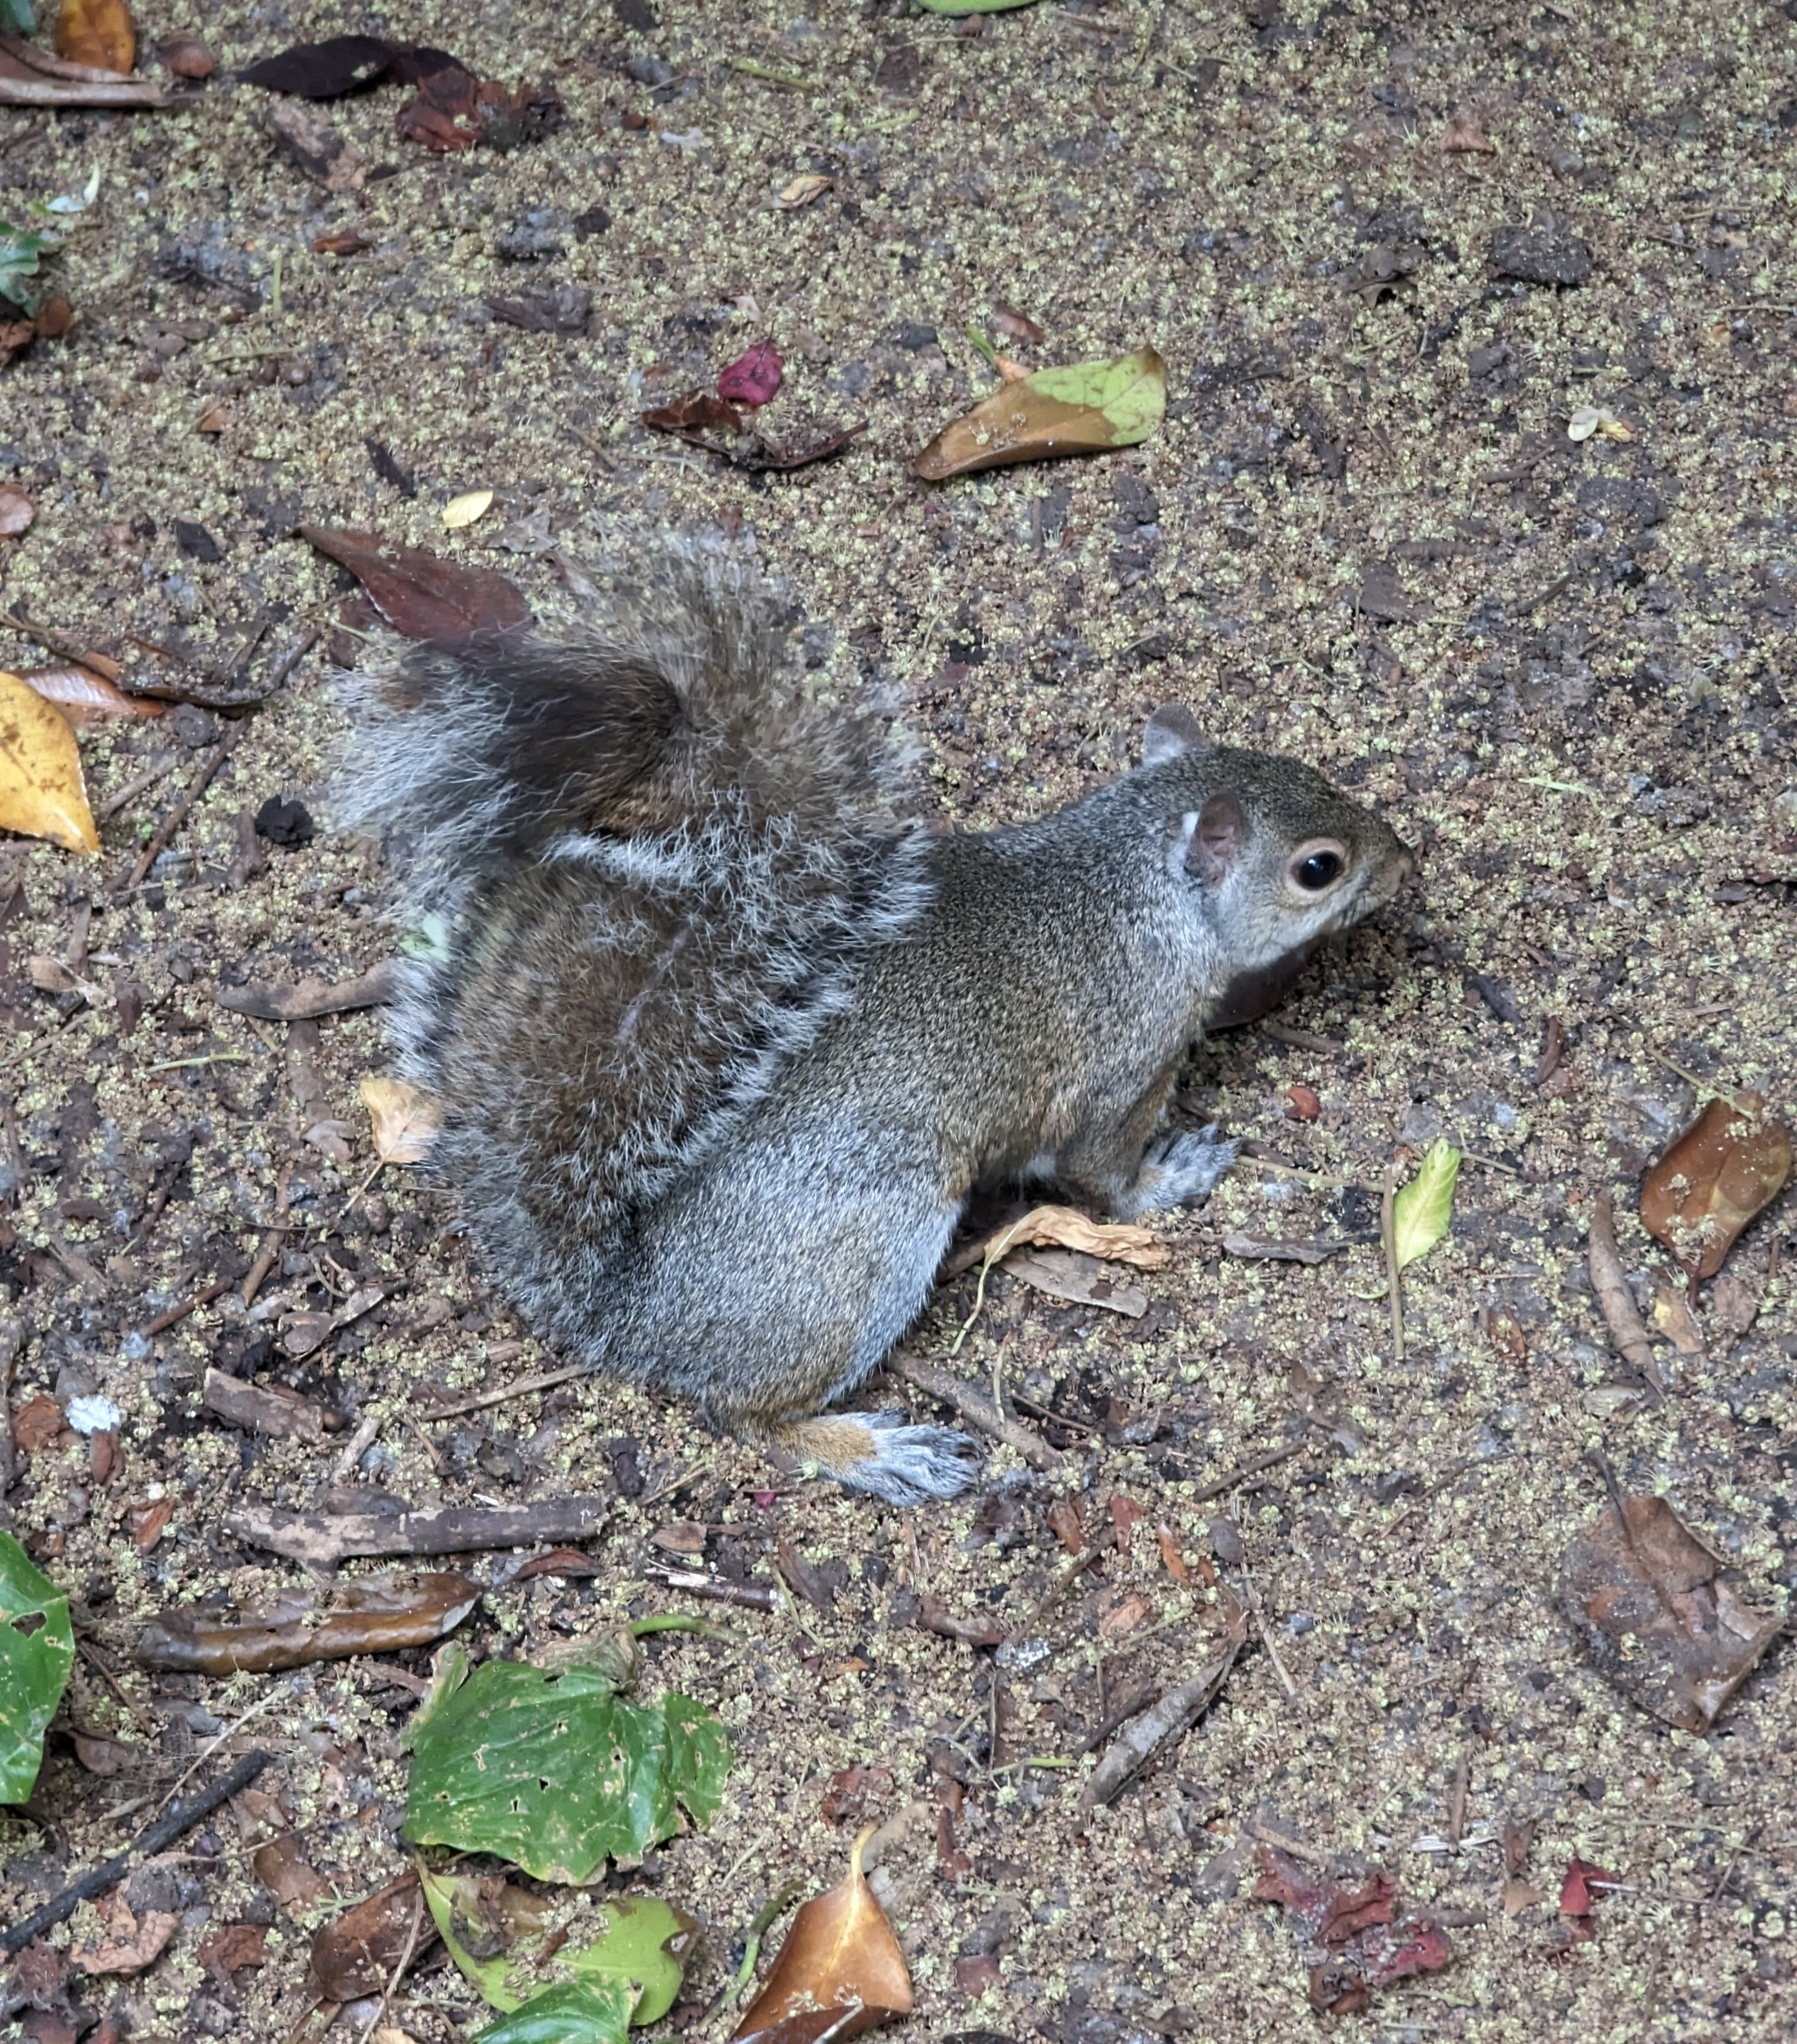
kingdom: Animalia
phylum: Chordata
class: Mammalia
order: Rodentia
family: Sciuridae
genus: Sciurus
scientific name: Sciurus carolinensis
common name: Eastern gray squirrel
